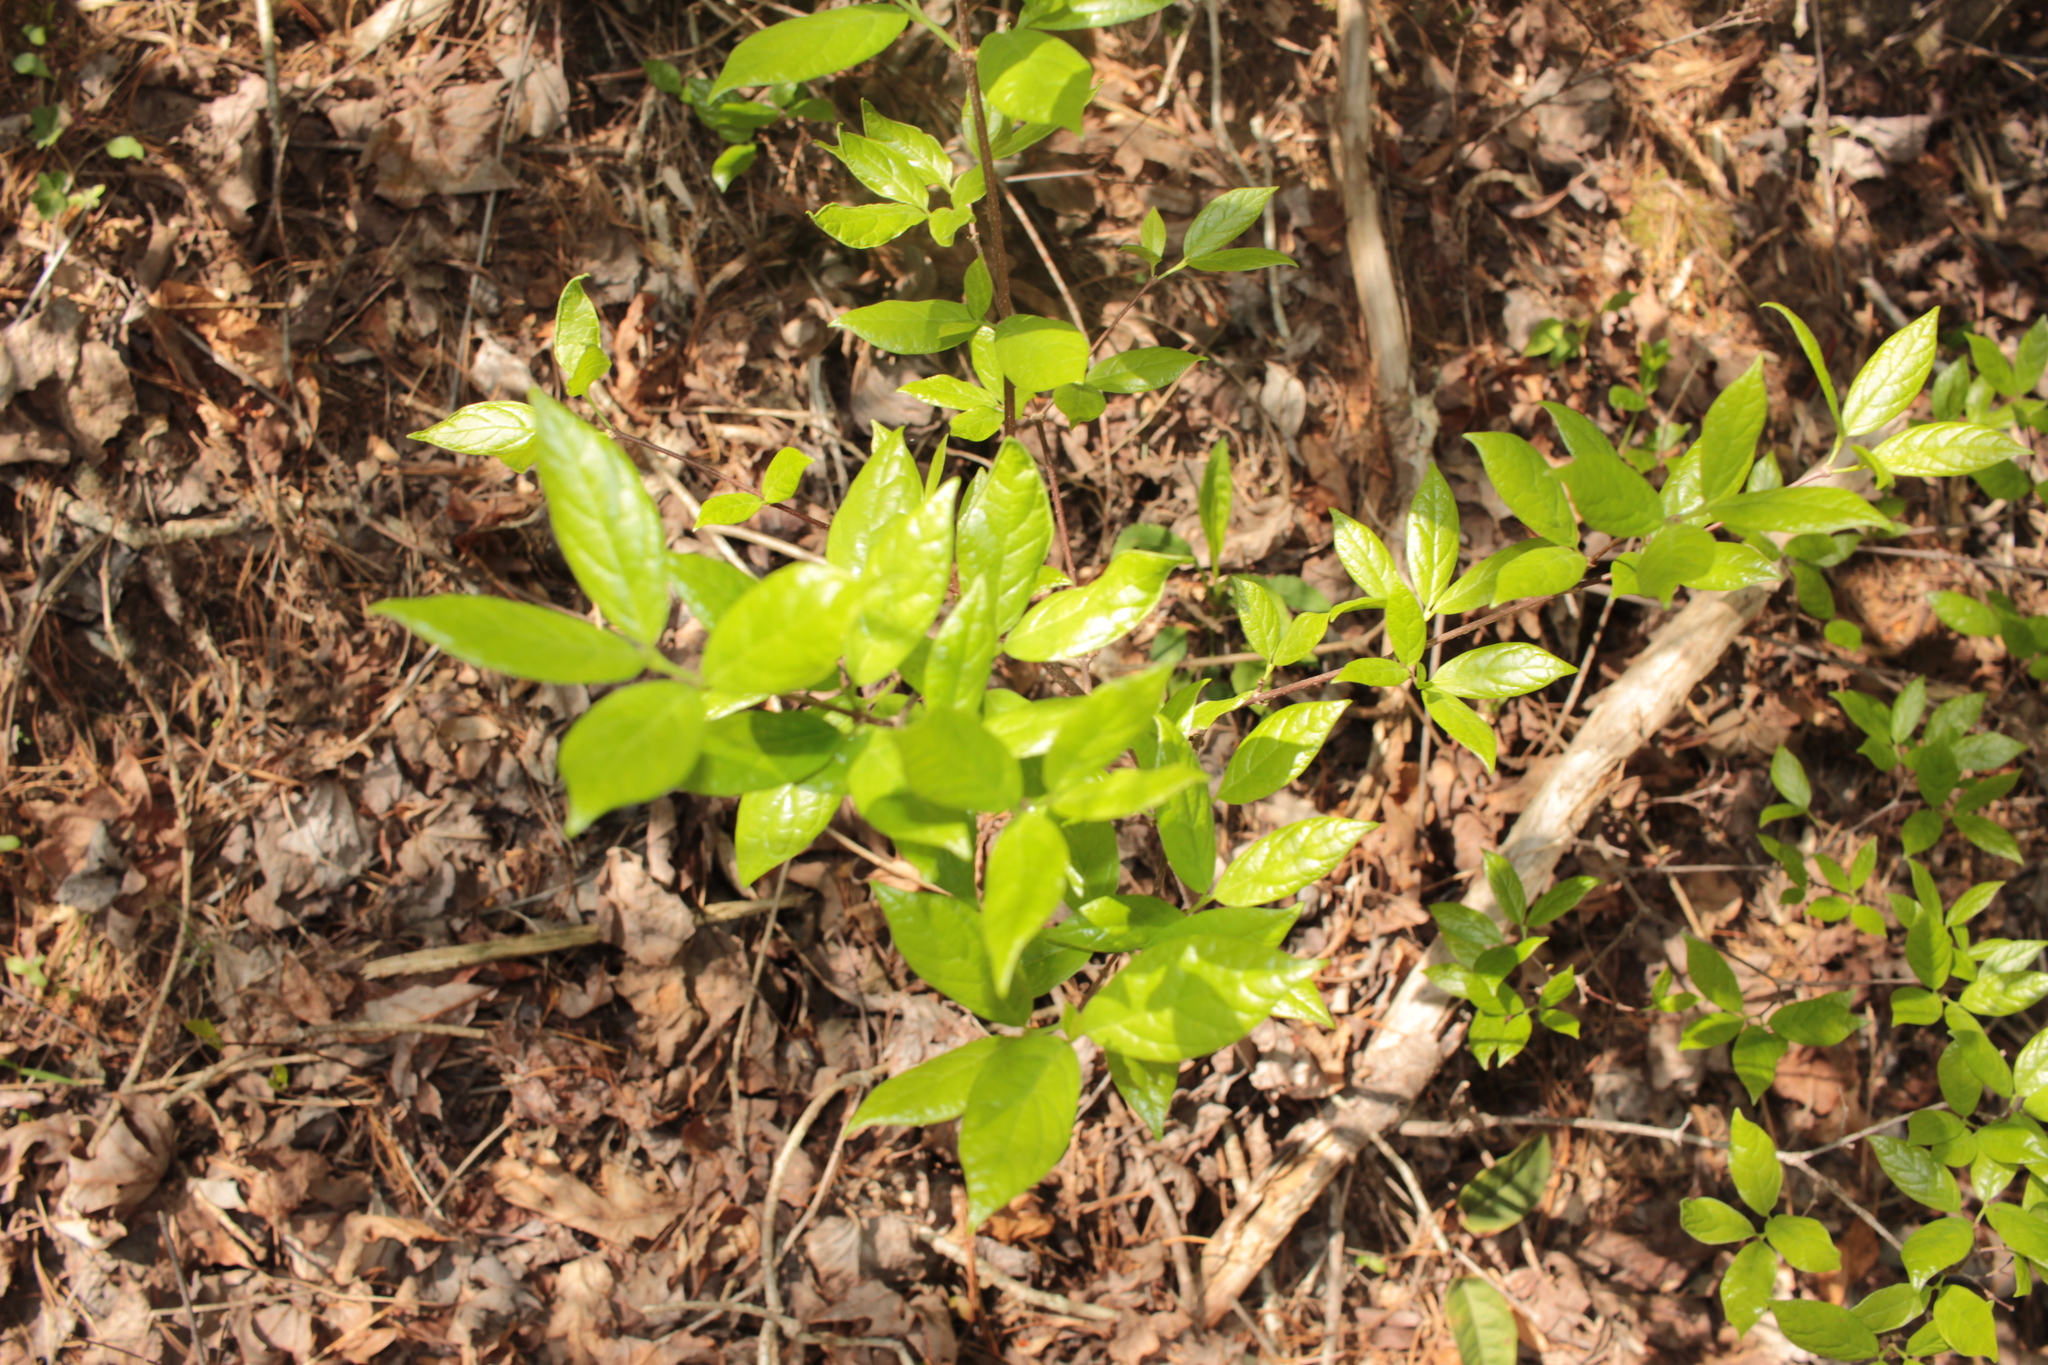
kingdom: Plantae
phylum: Tracheophyta
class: Magnoliopsida
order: Laurales
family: Calycanthaceae
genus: Calycanthus
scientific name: Calycanthus floridus
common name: Carolina-allspice
